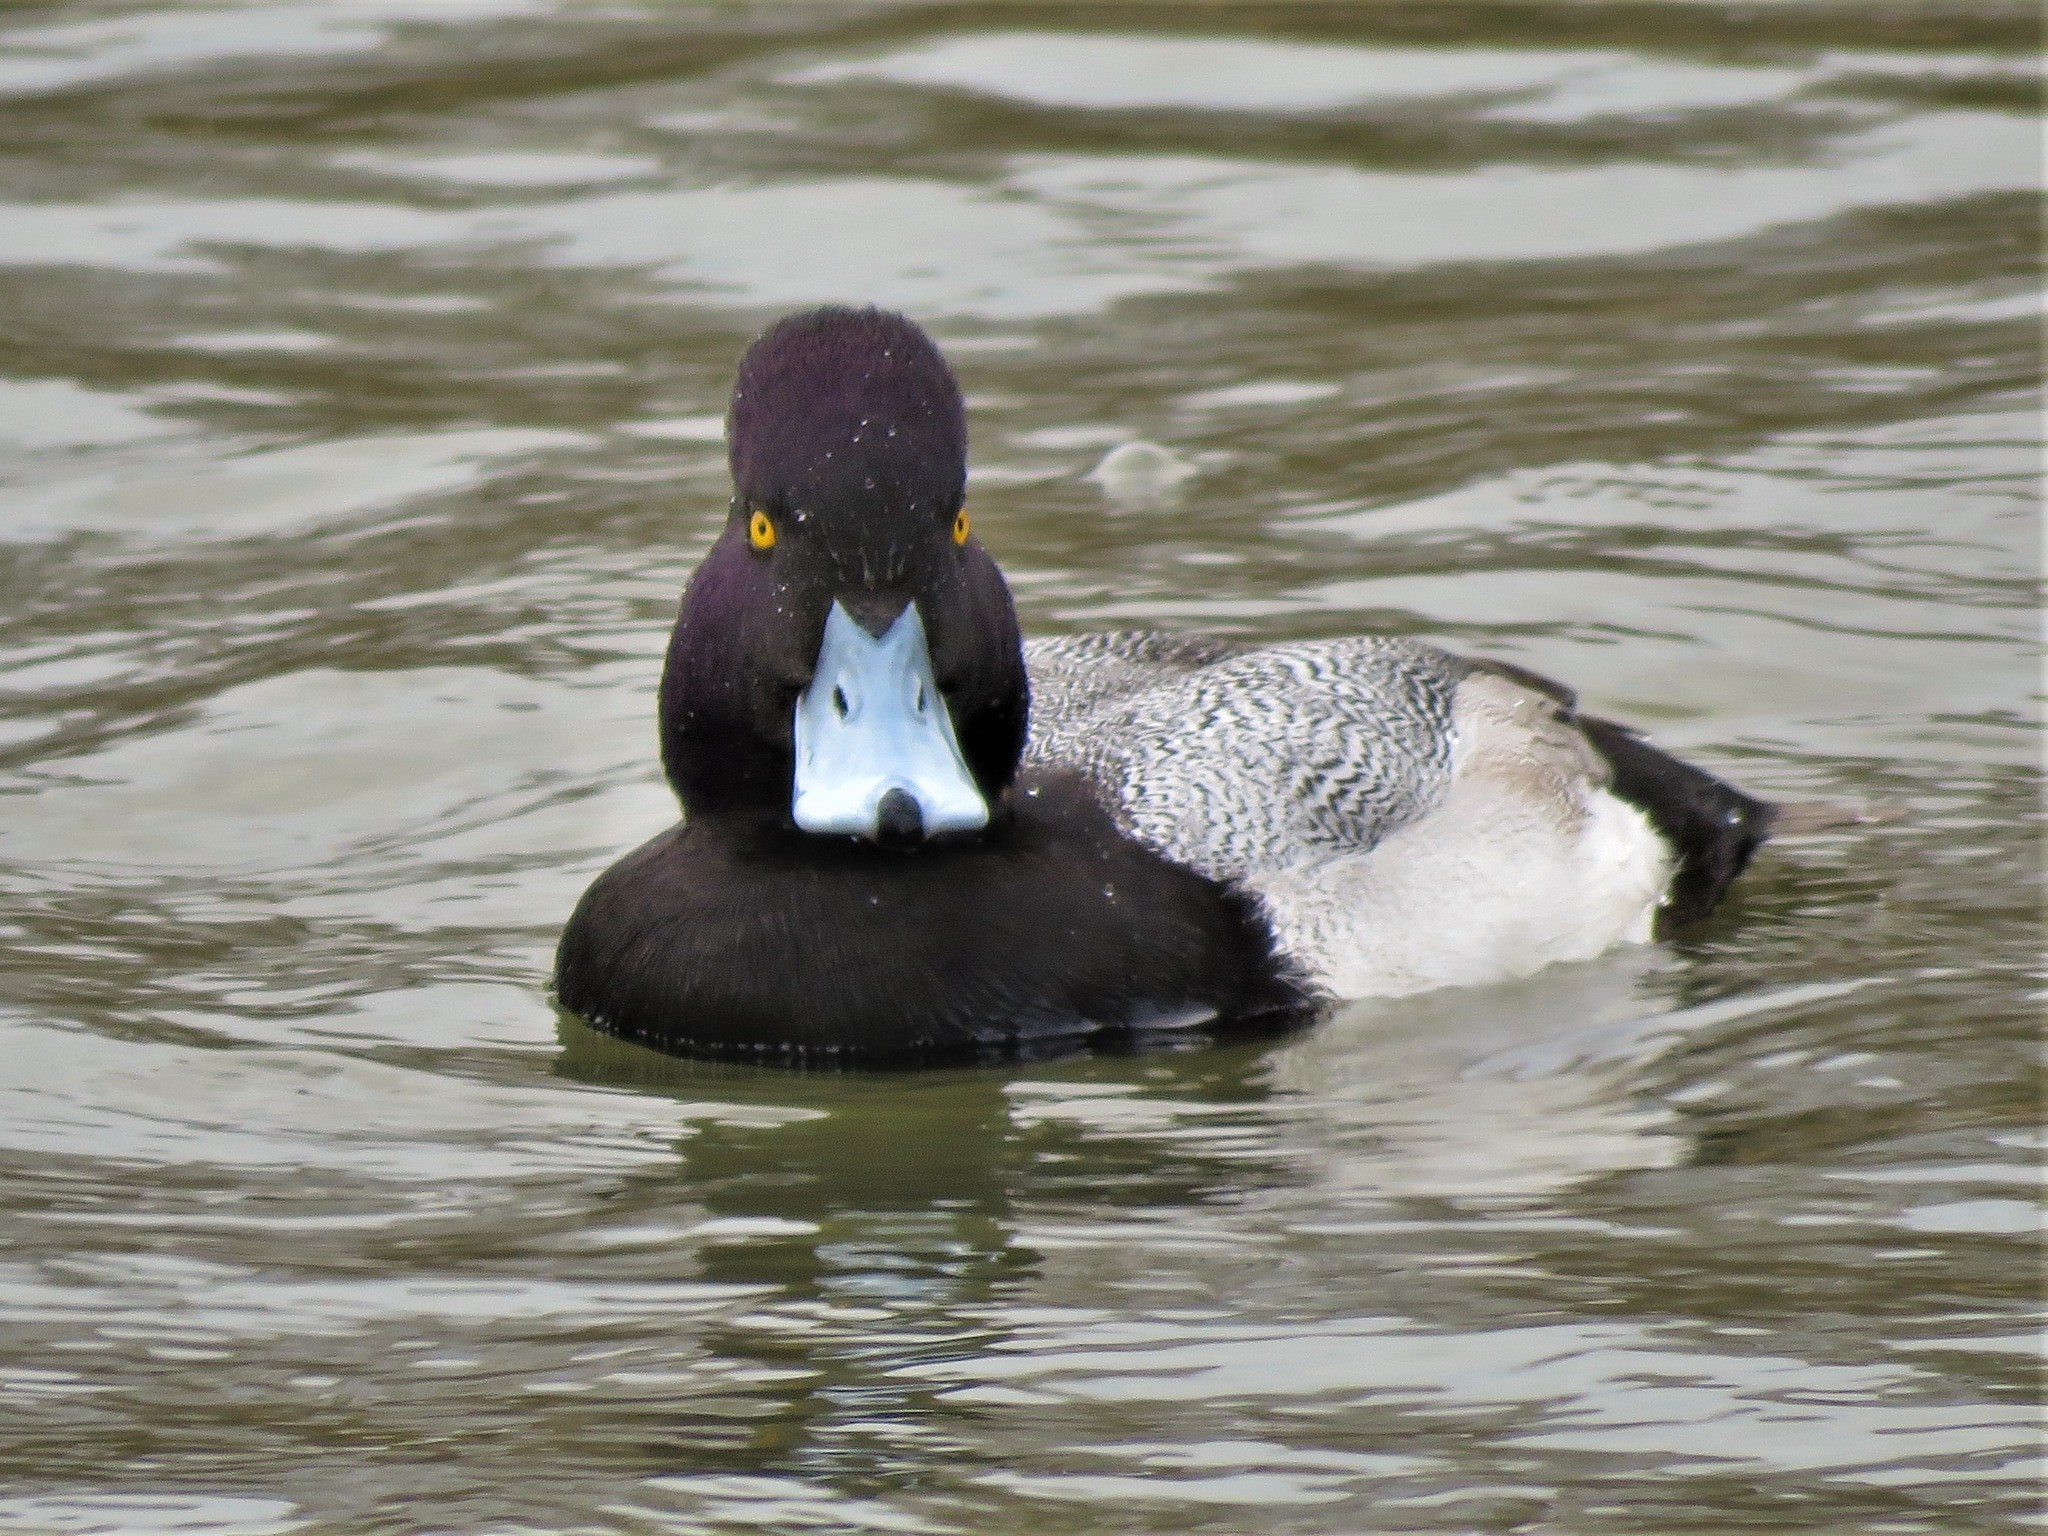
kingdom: Animalia
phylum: Chordata
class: Aves
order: Anseriformes
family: Anatidae
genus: Aythya
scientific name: Aythya affinis
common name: Lesser scaup
